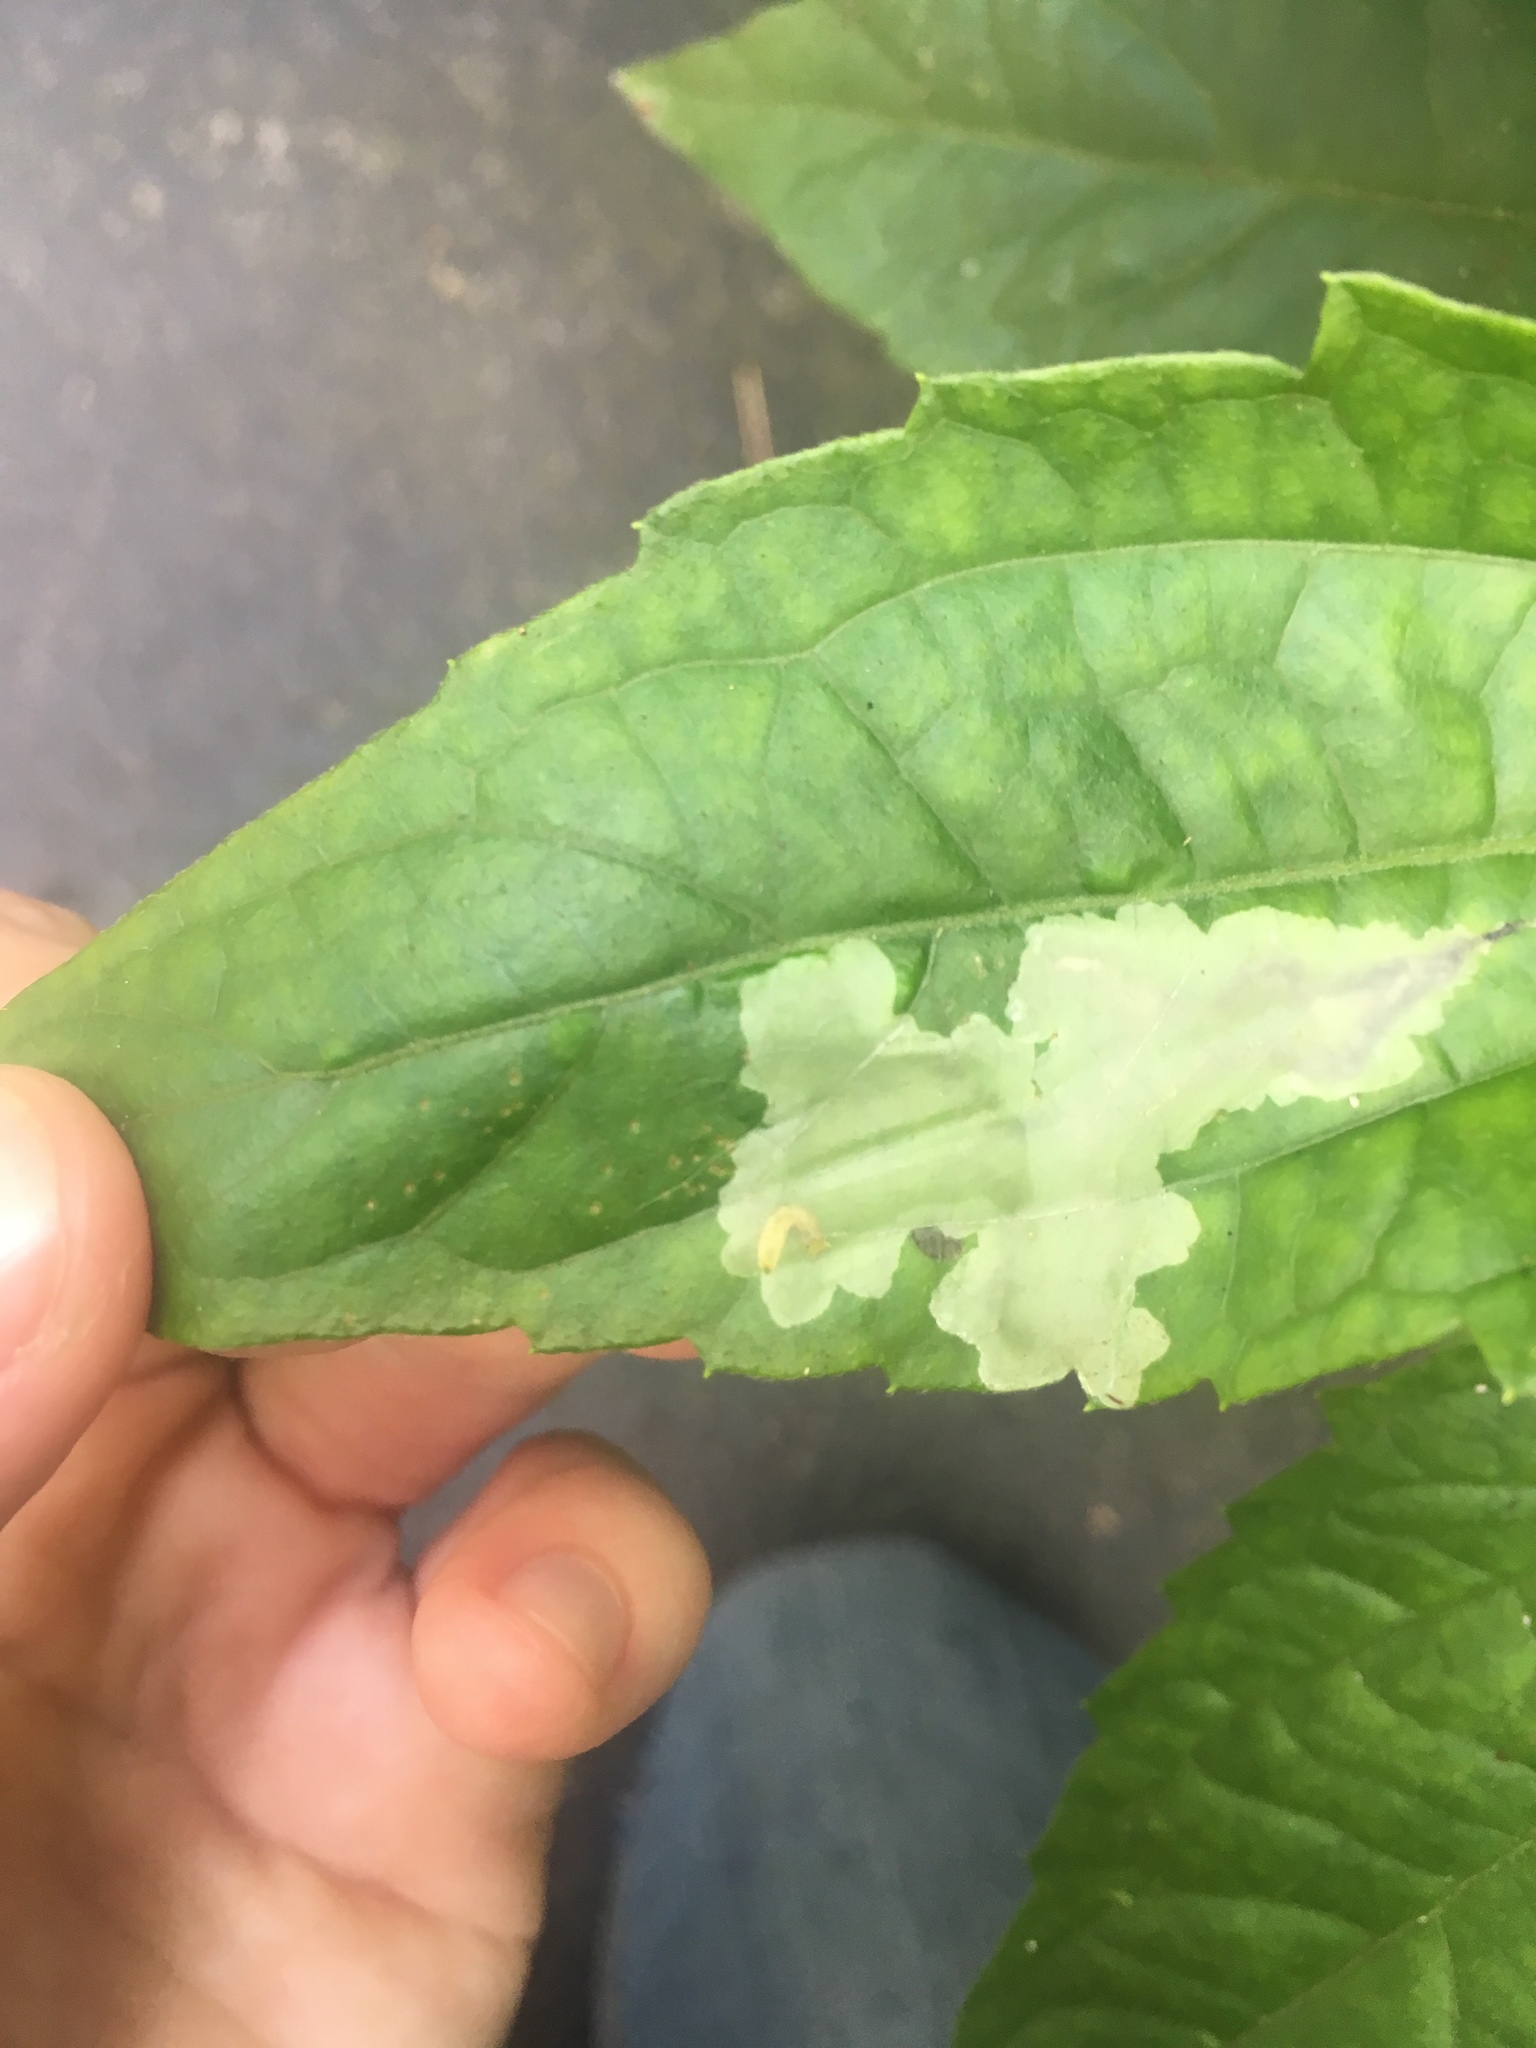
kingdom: Animalia
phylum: Arthropoda
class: Insecta
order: Diptera
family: Agromyzidae
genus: Calycomyza
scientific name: Calycomyza eupatorivora
